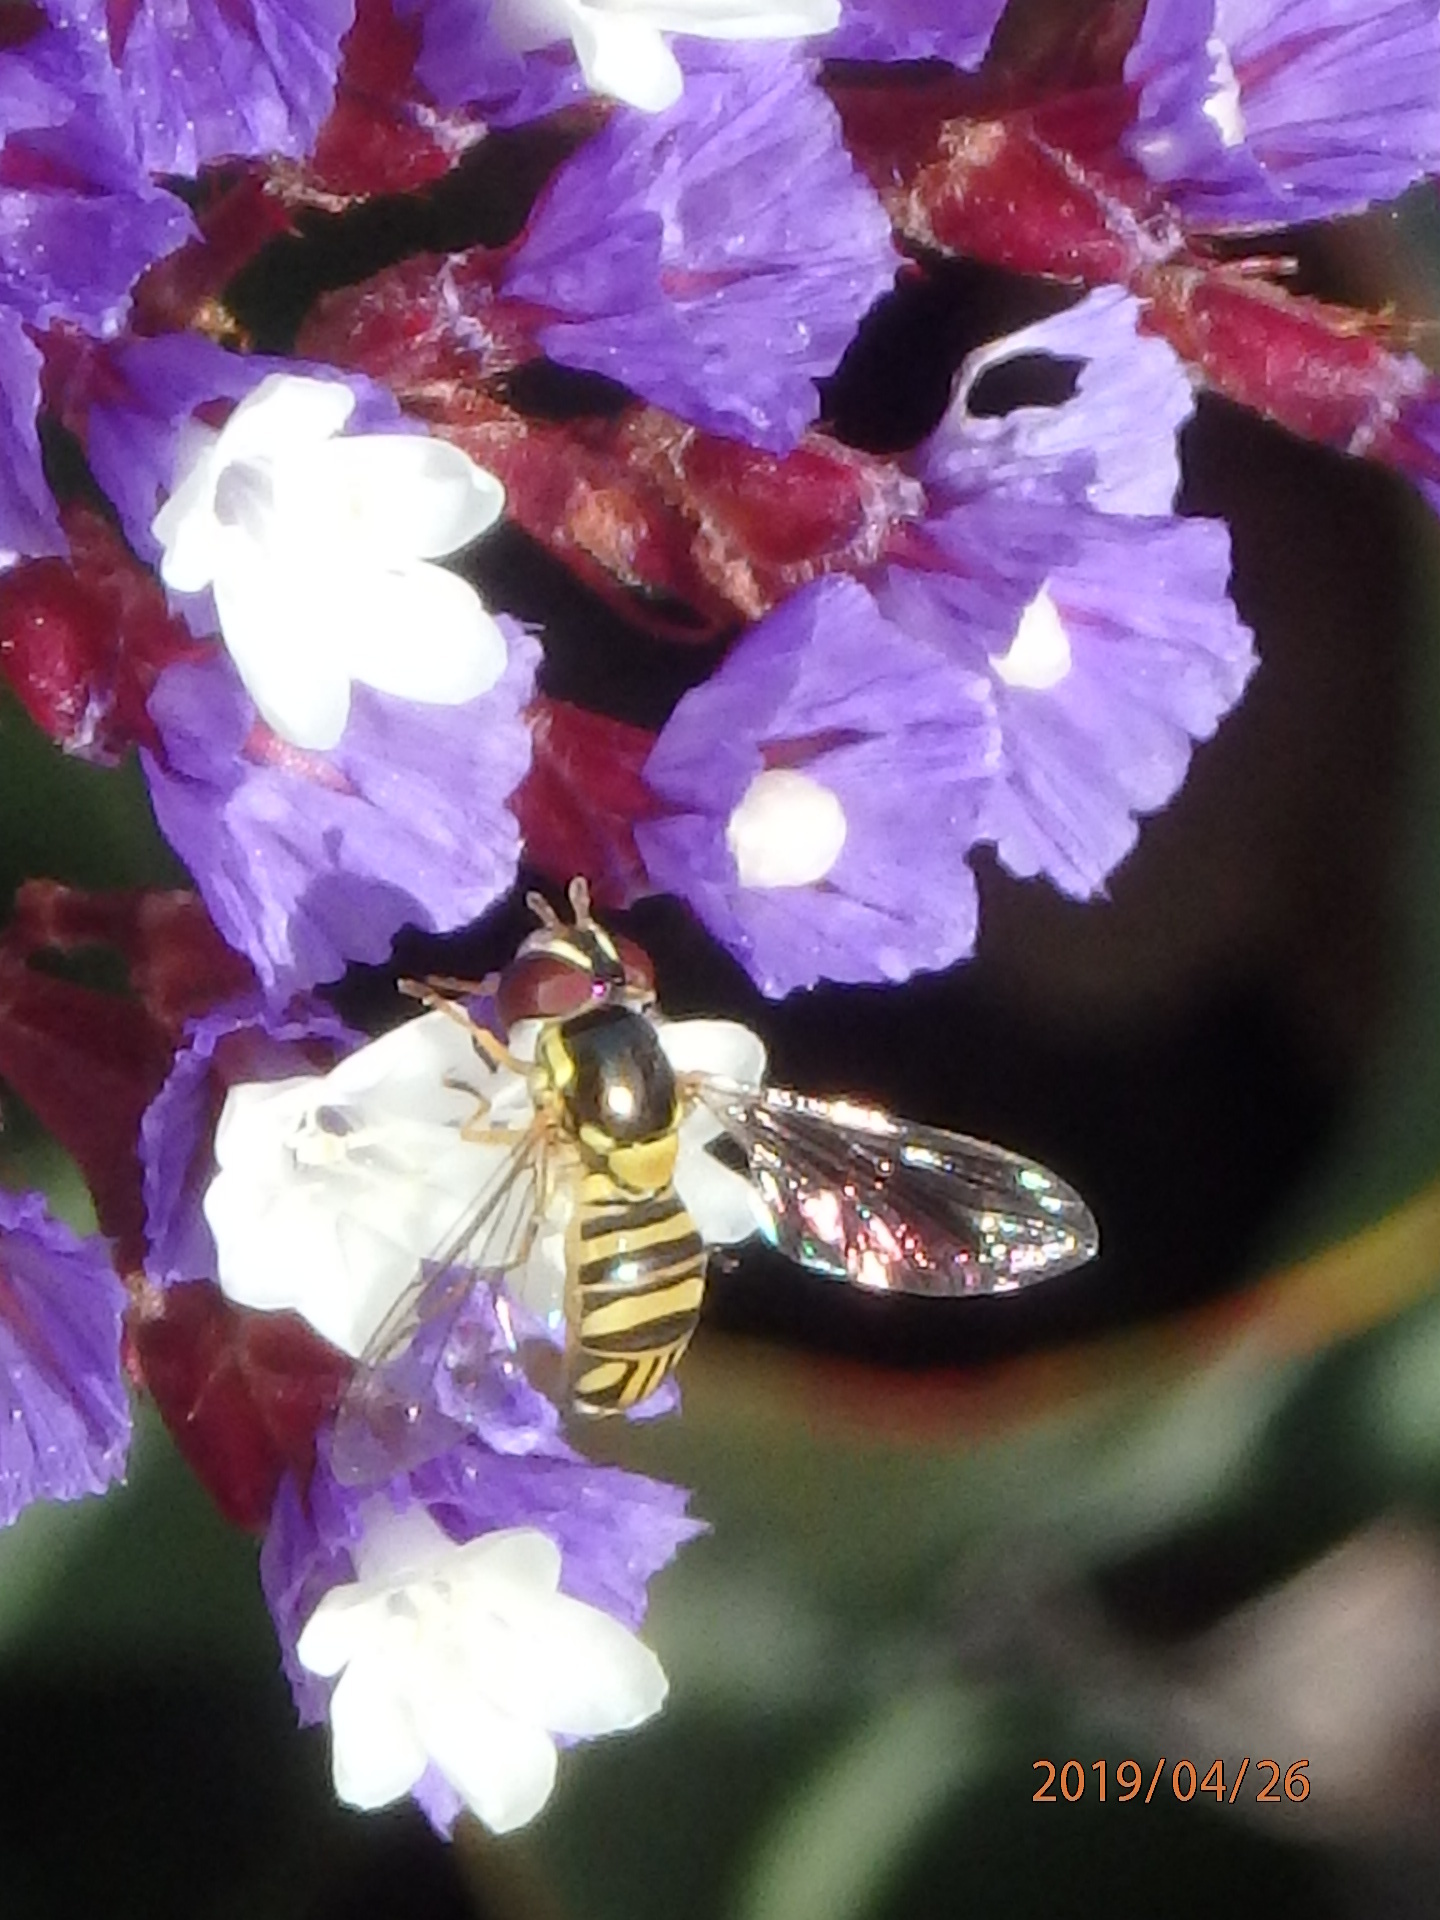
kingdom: Animalia
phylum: Arthropoda
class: Insecta
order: Diptera
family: Syrphidae
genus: Allograpta
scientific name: Allograpta obliqua
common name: Common oblique syrphid
